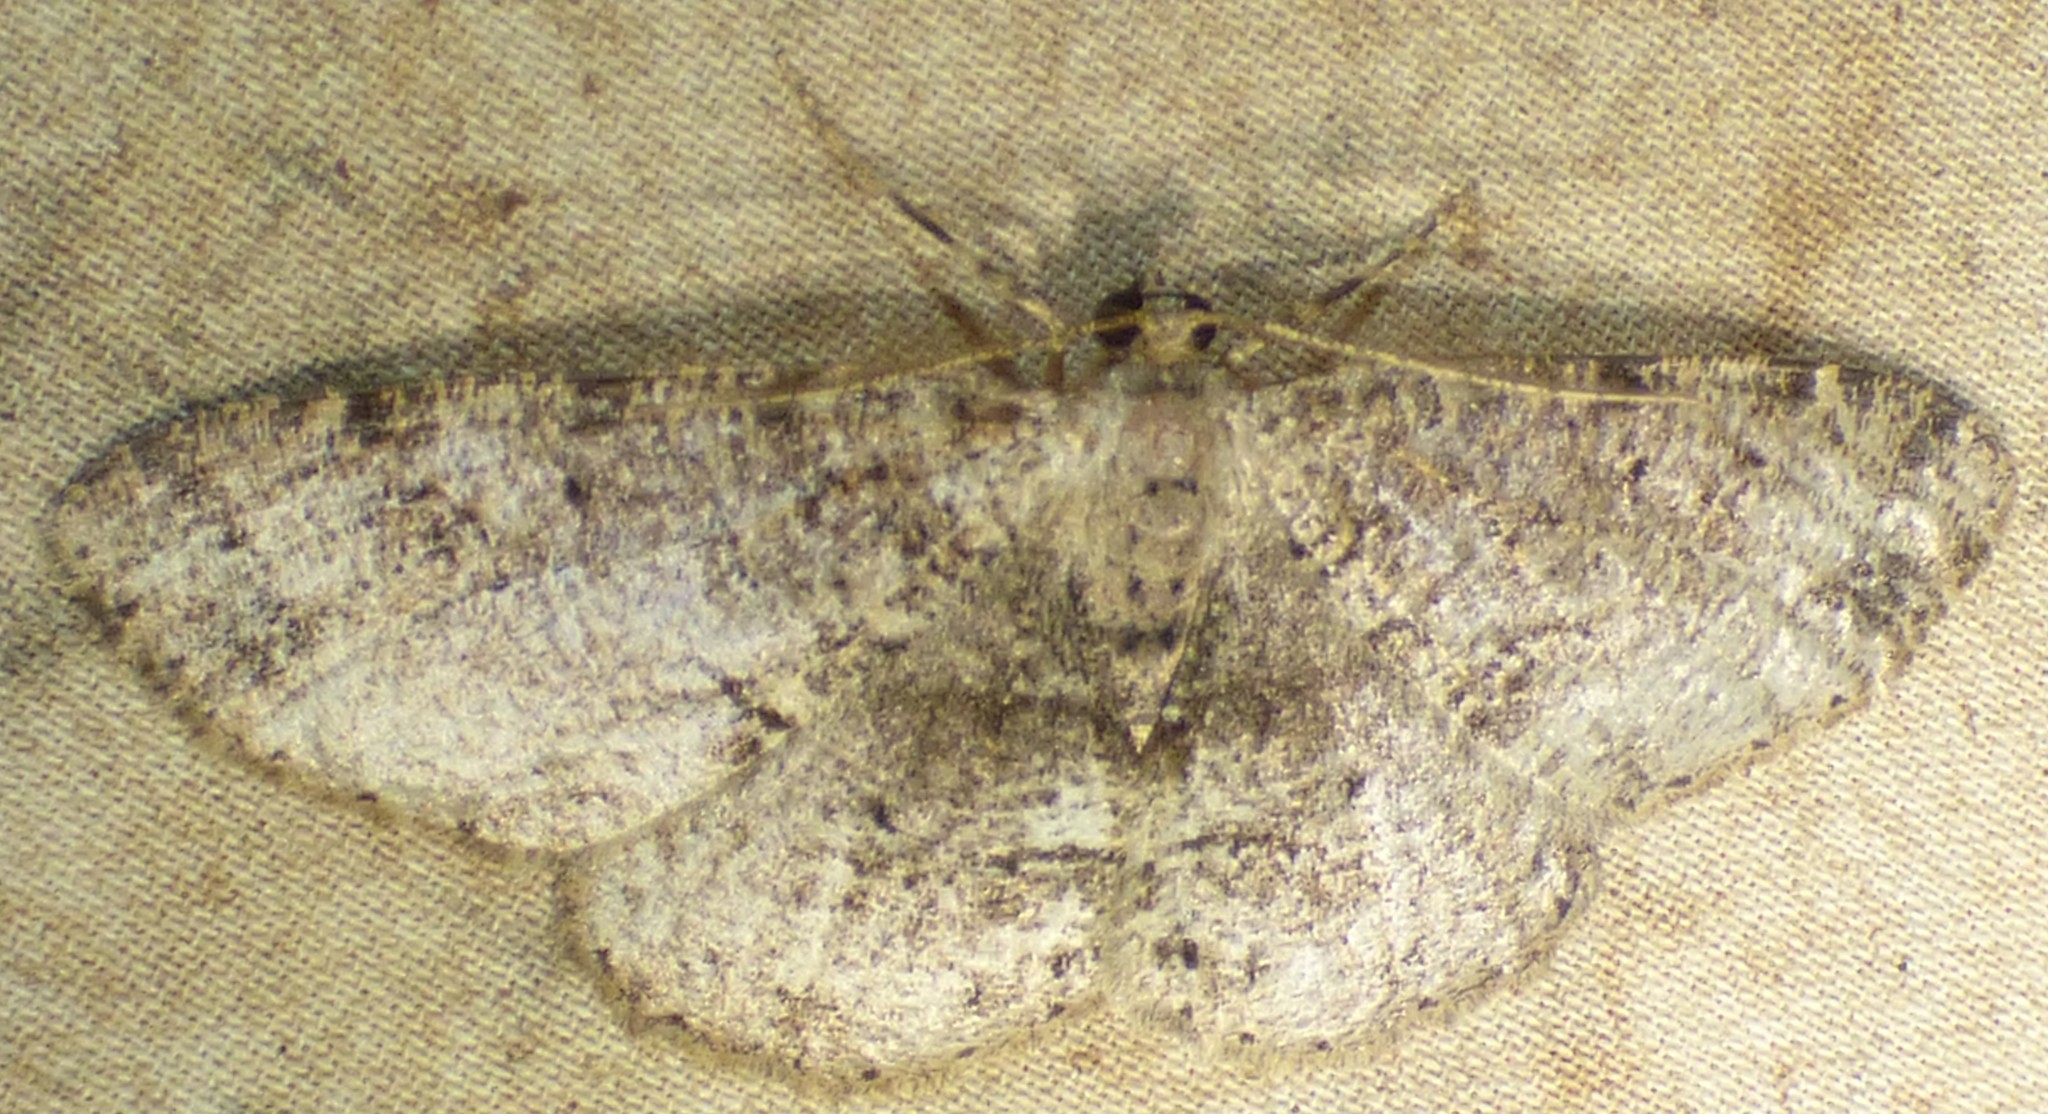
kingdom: Animalia
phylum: Arthropoda
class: Insecta
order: Lepidoptera
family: Geometridae
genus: Melanolophia
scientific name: Melanolophia canadaria
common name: Canadian melanolophia
